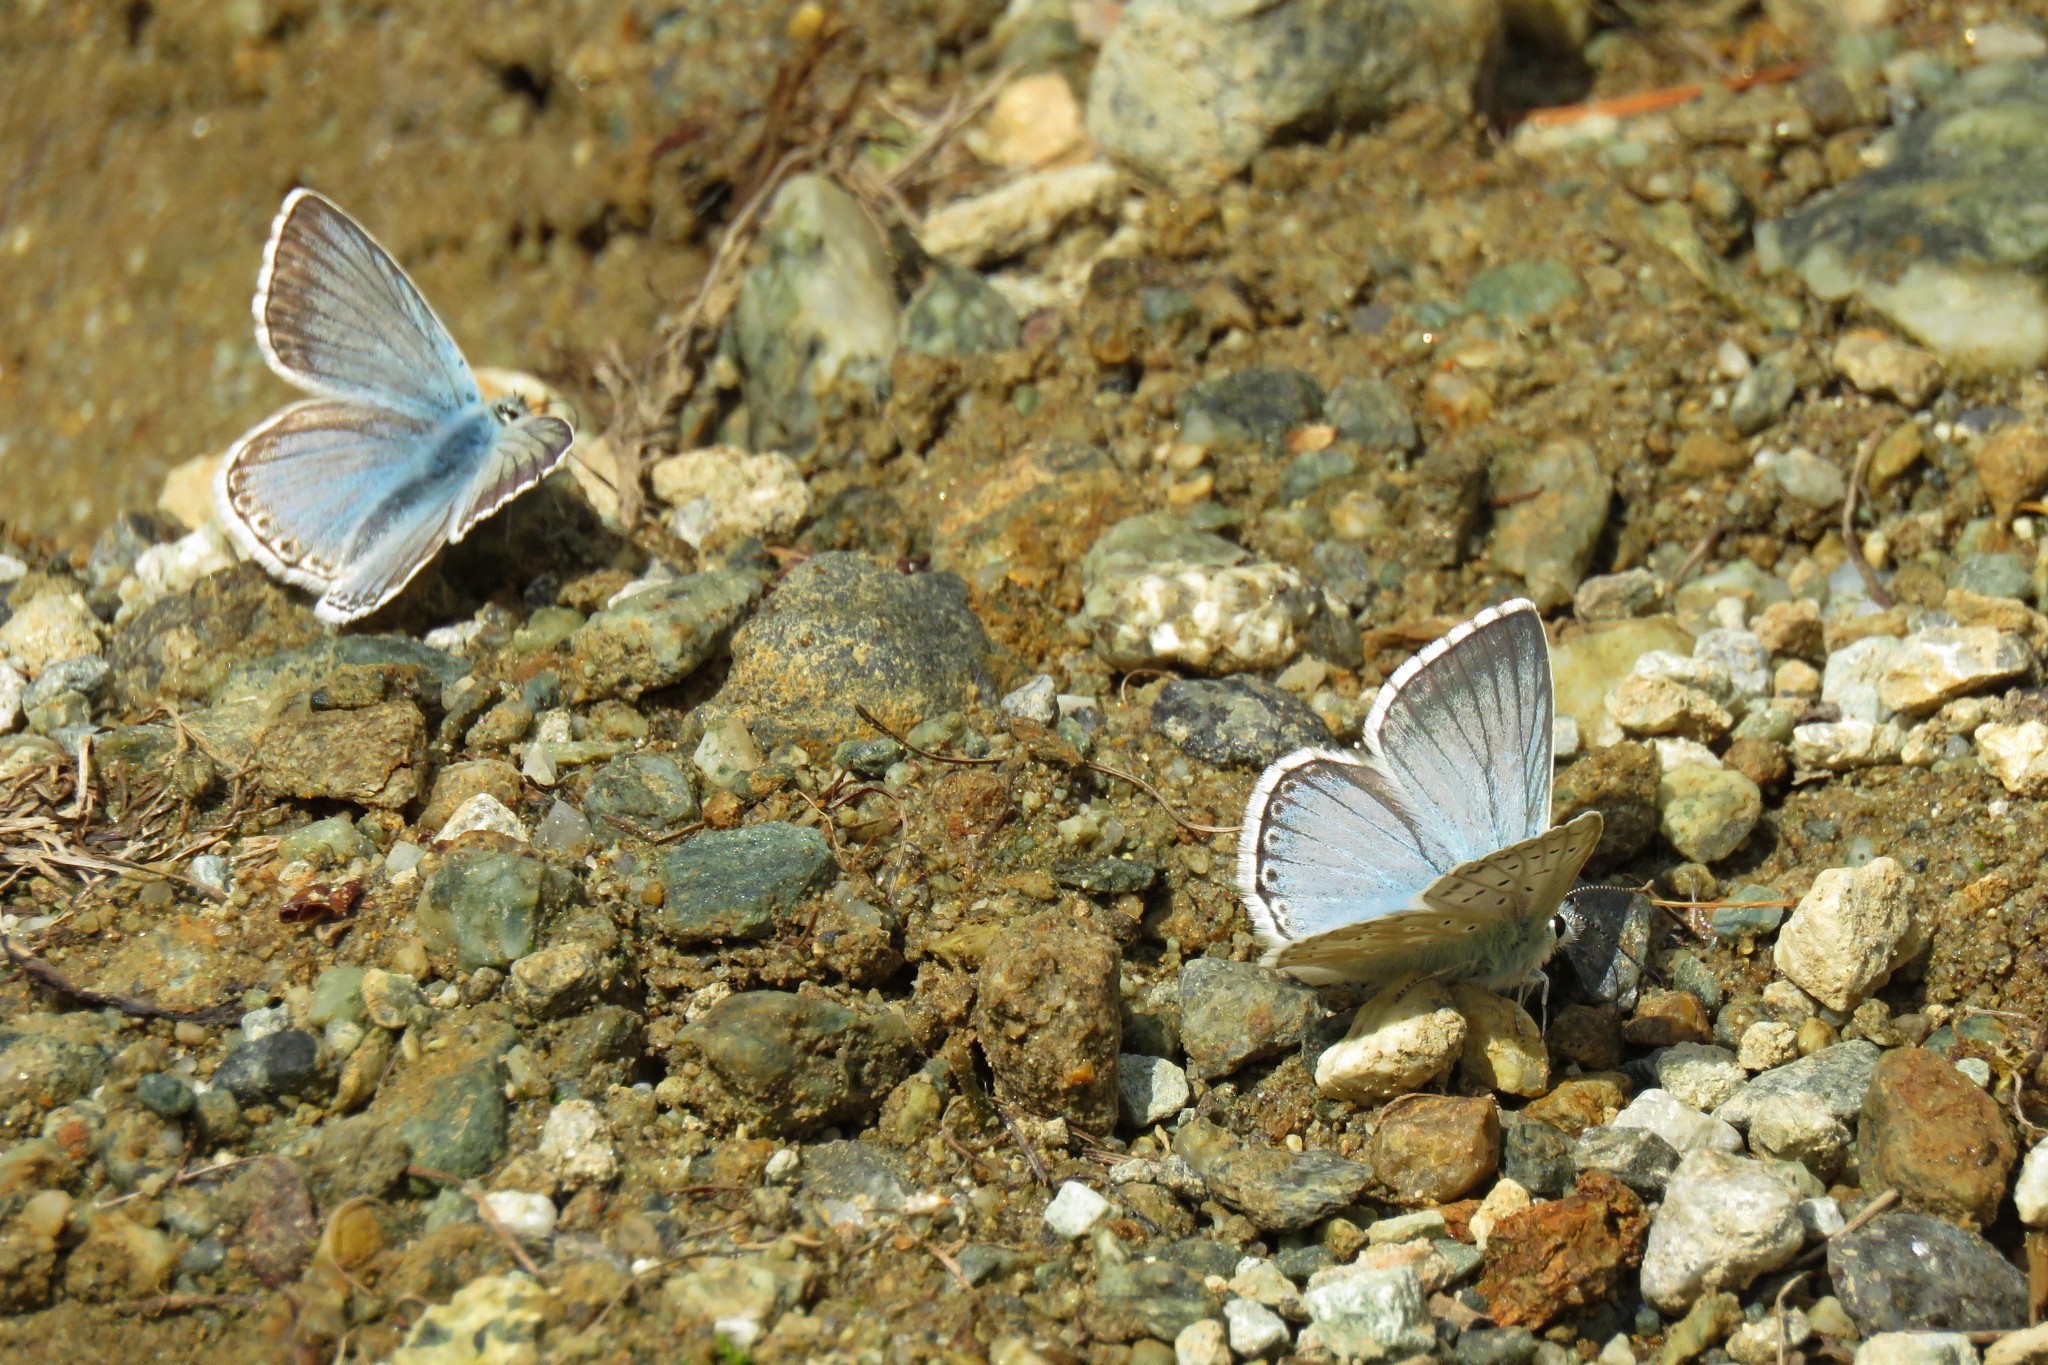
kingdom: Animalia
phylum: Arthropoda
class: Insecta
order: Lepidoptera
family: Lycaenidae
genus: Lysandra
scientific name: Lysandra coridon
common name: Chalkhill blue
